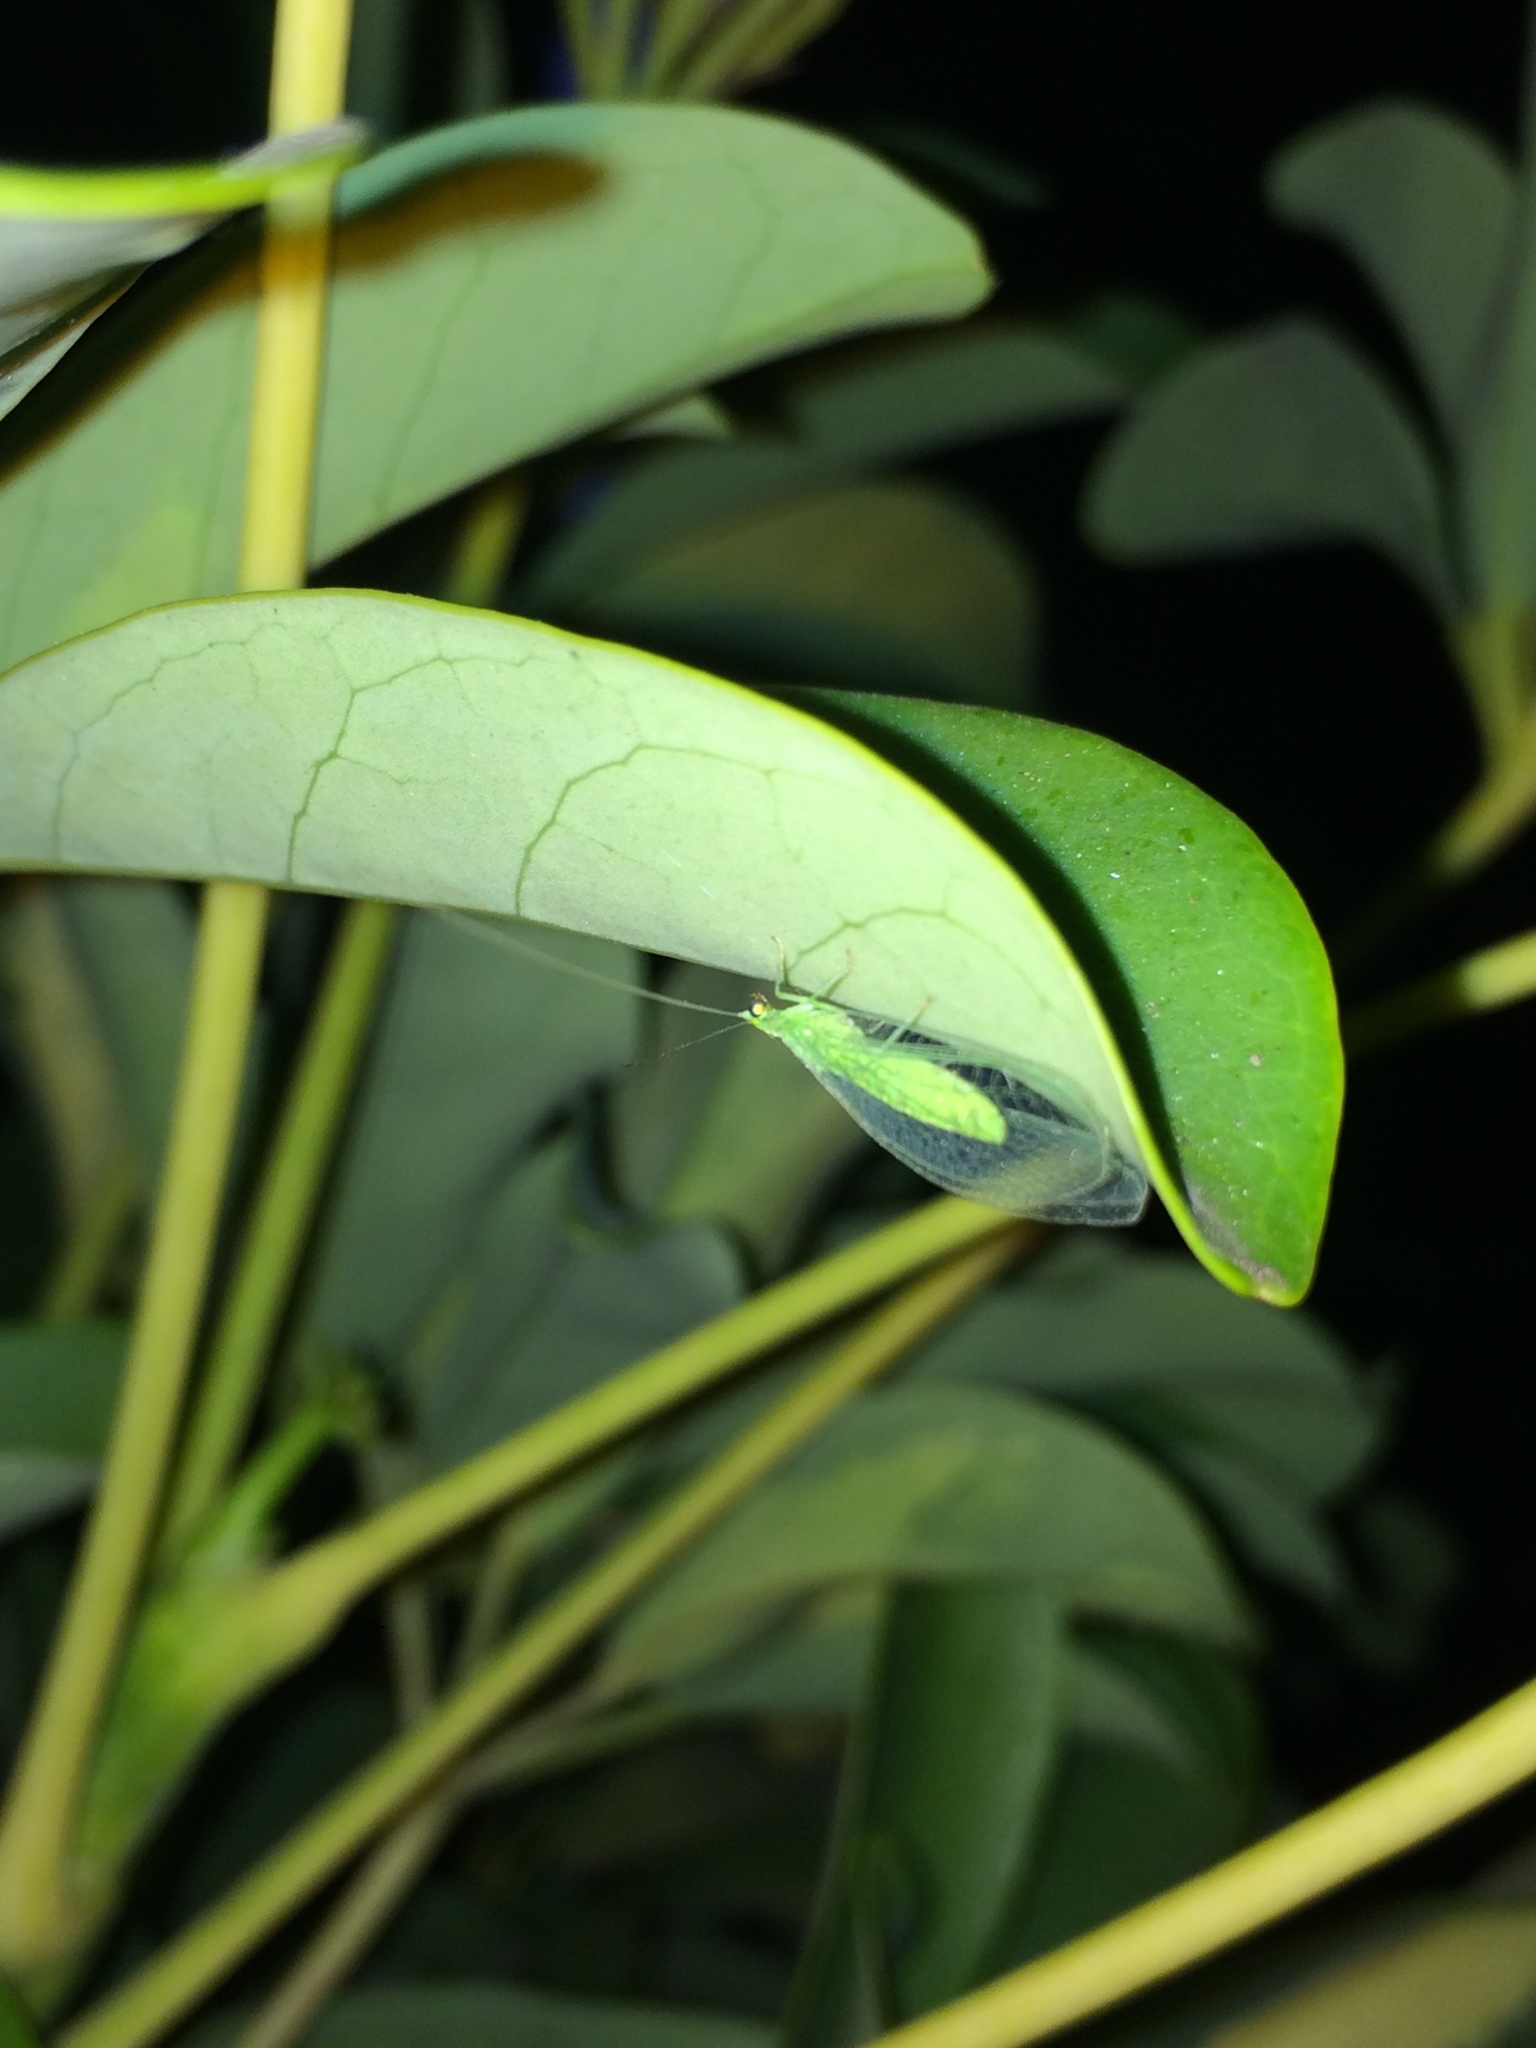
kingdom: Animalia
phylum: Arthropoda
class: Insecta
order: Neuroptera
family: Chrysopidae
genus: Chrysoperla
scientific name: Chrysoperla
